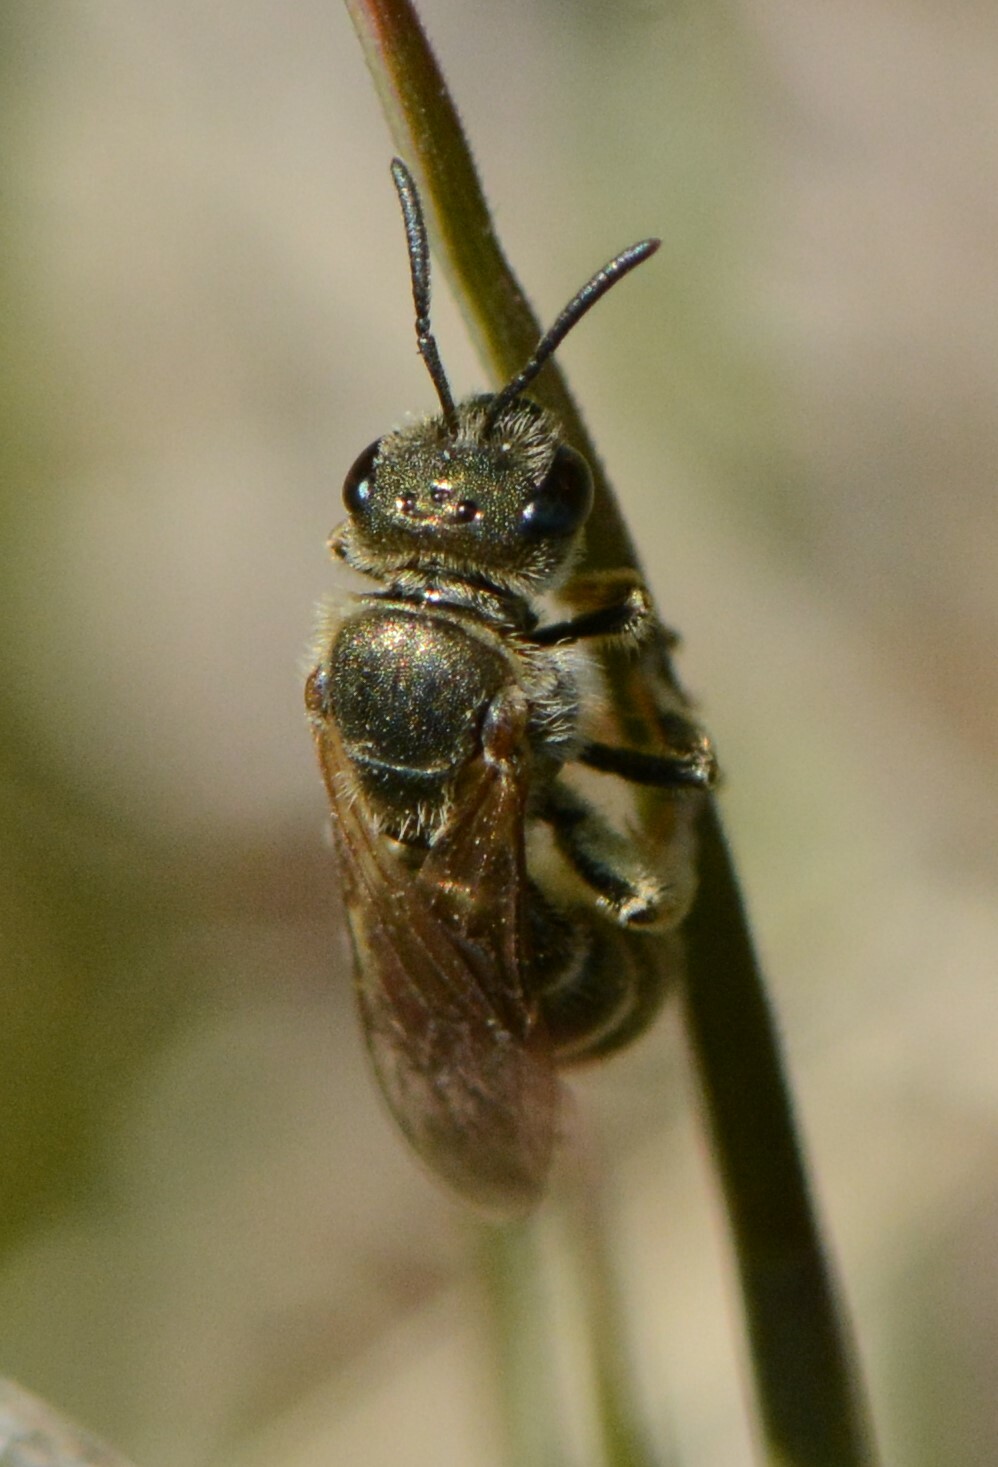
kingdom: Animalia
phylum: Arthropoda
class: Insecta
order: Hymenoptera
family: Halictidae
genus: Halictus
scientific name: Halictus confusus
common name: Southern bronze furrow bee
